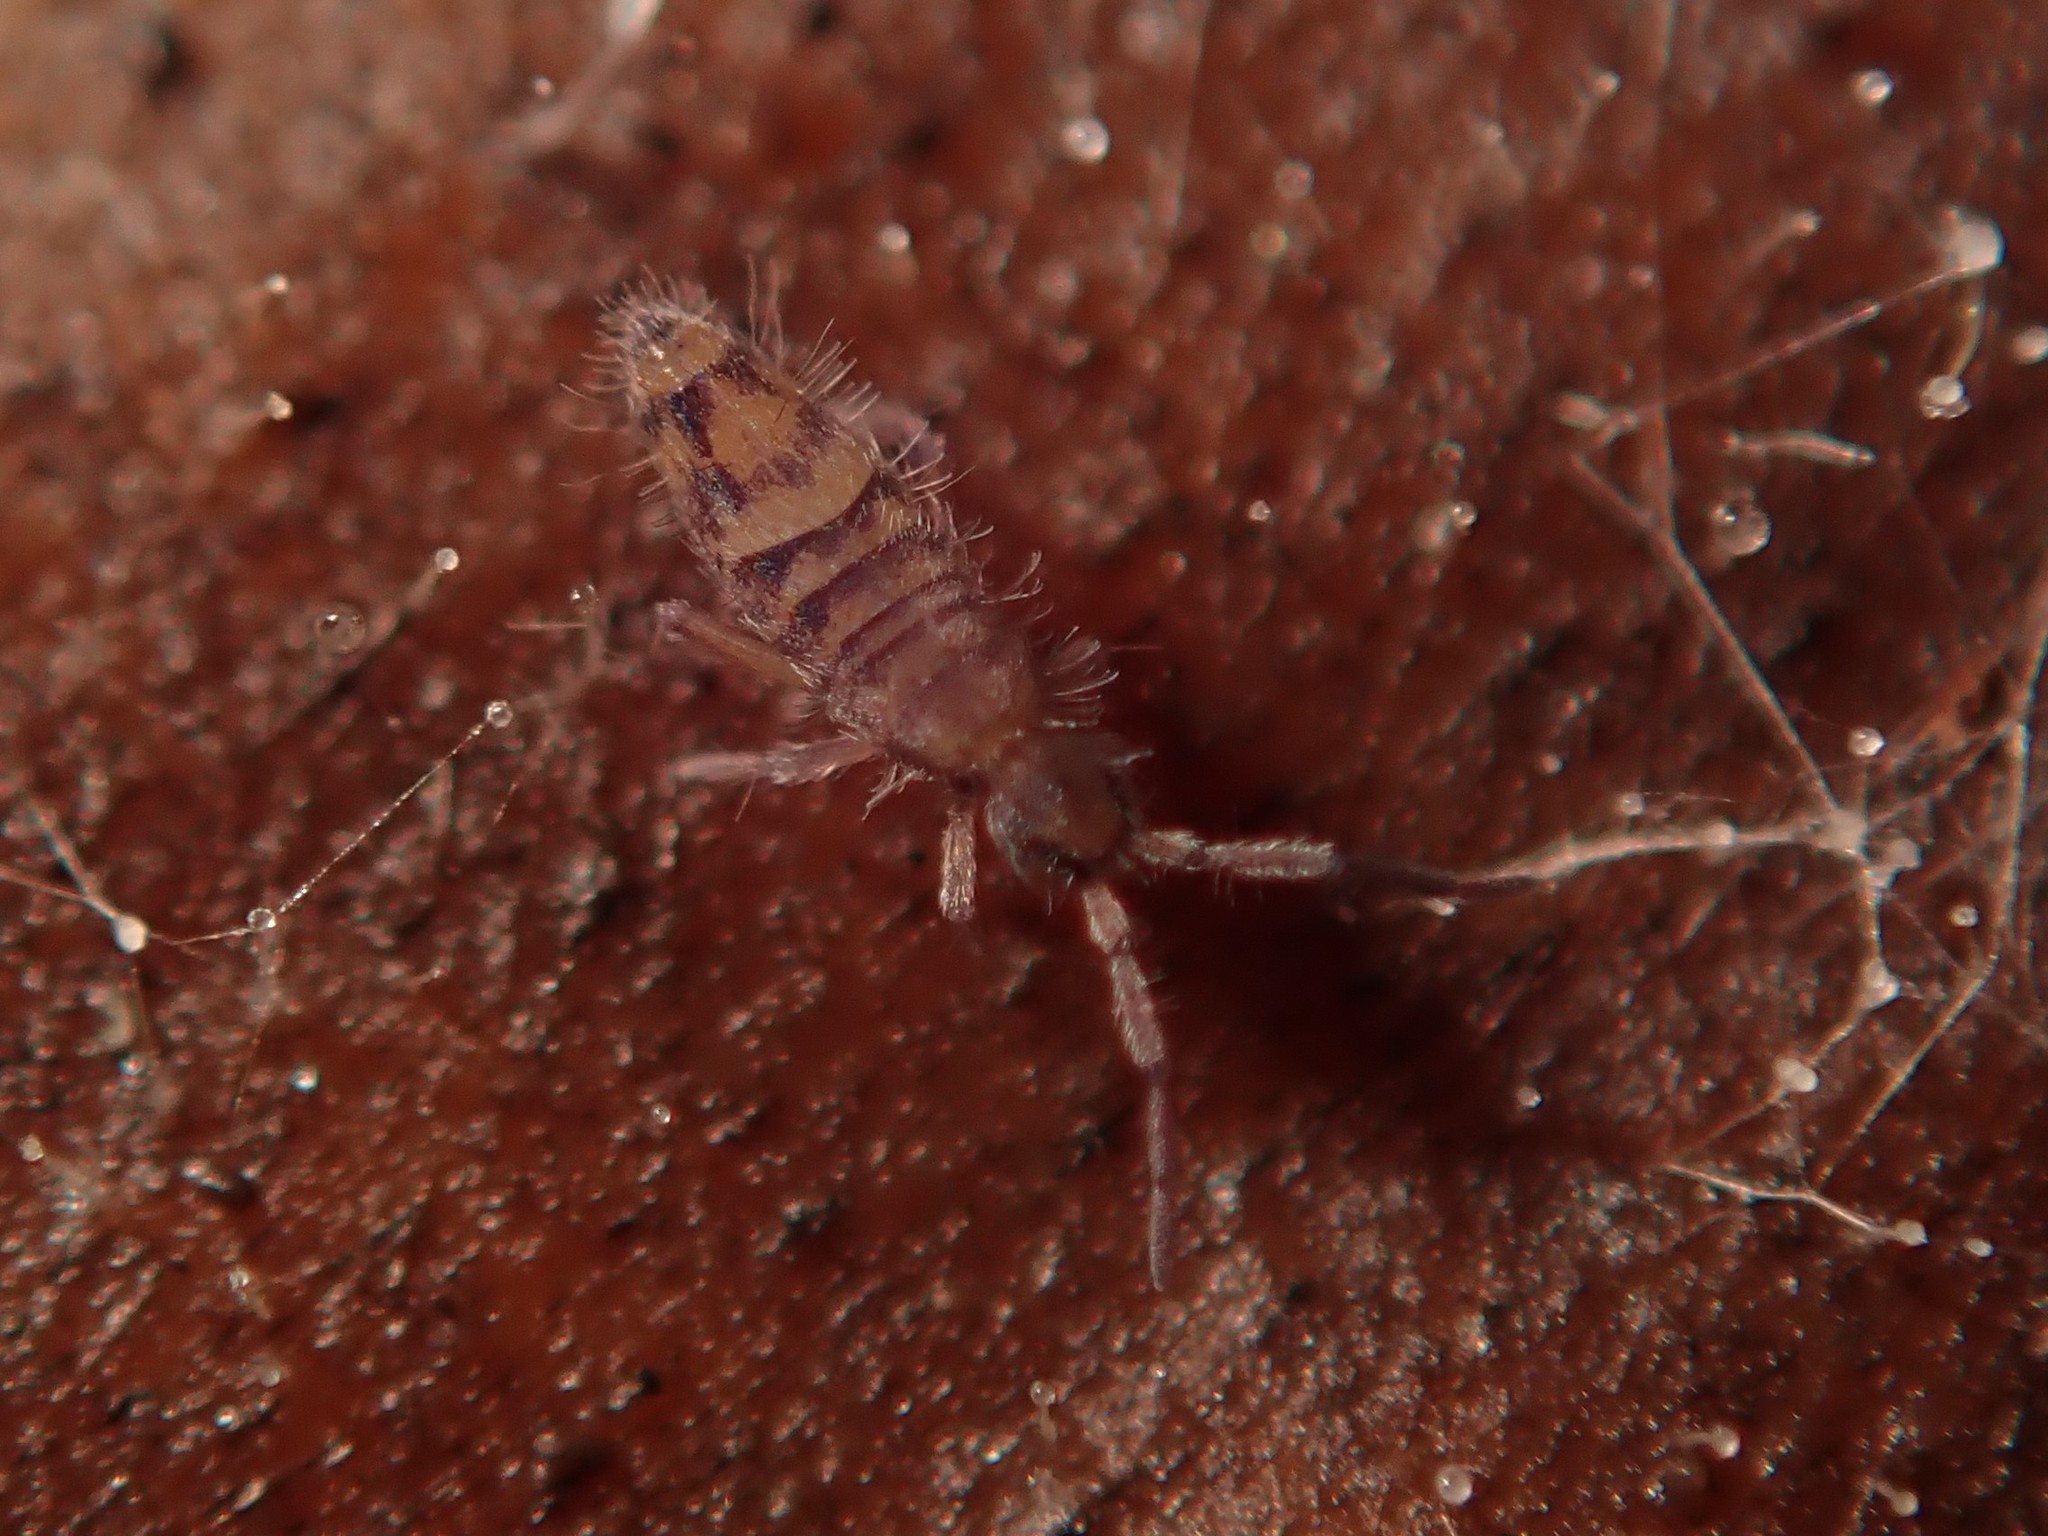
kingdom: Animalia
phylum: Arthropoda
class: Collembola
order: Entomobryomorpha
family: Entomobryidae
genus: Entomobrya
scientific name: Entomobrya multifasciata
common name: Springtail
